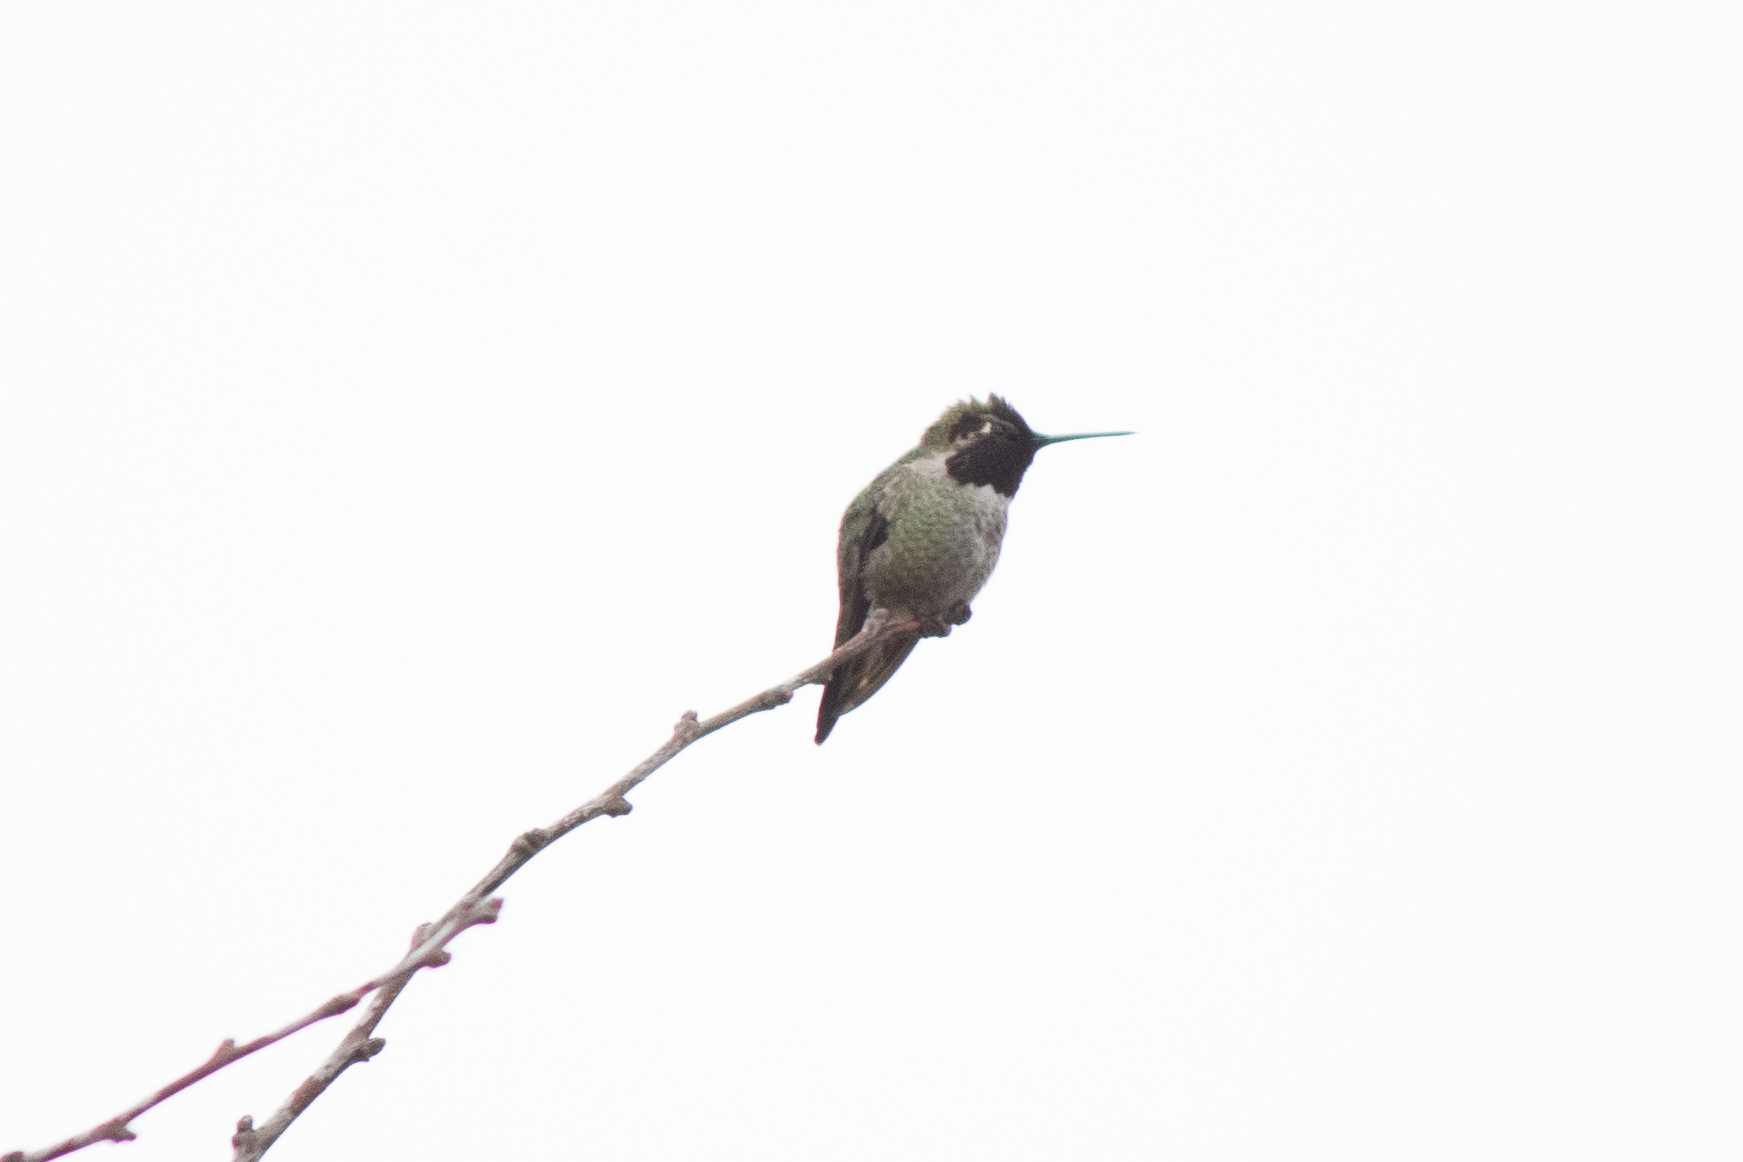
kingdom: Animalia
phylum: Chordata
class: Aves
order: Apodiformes
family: Trochilidae
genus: Calypte
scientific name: Calypte anna
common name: Anna's hummingbird
